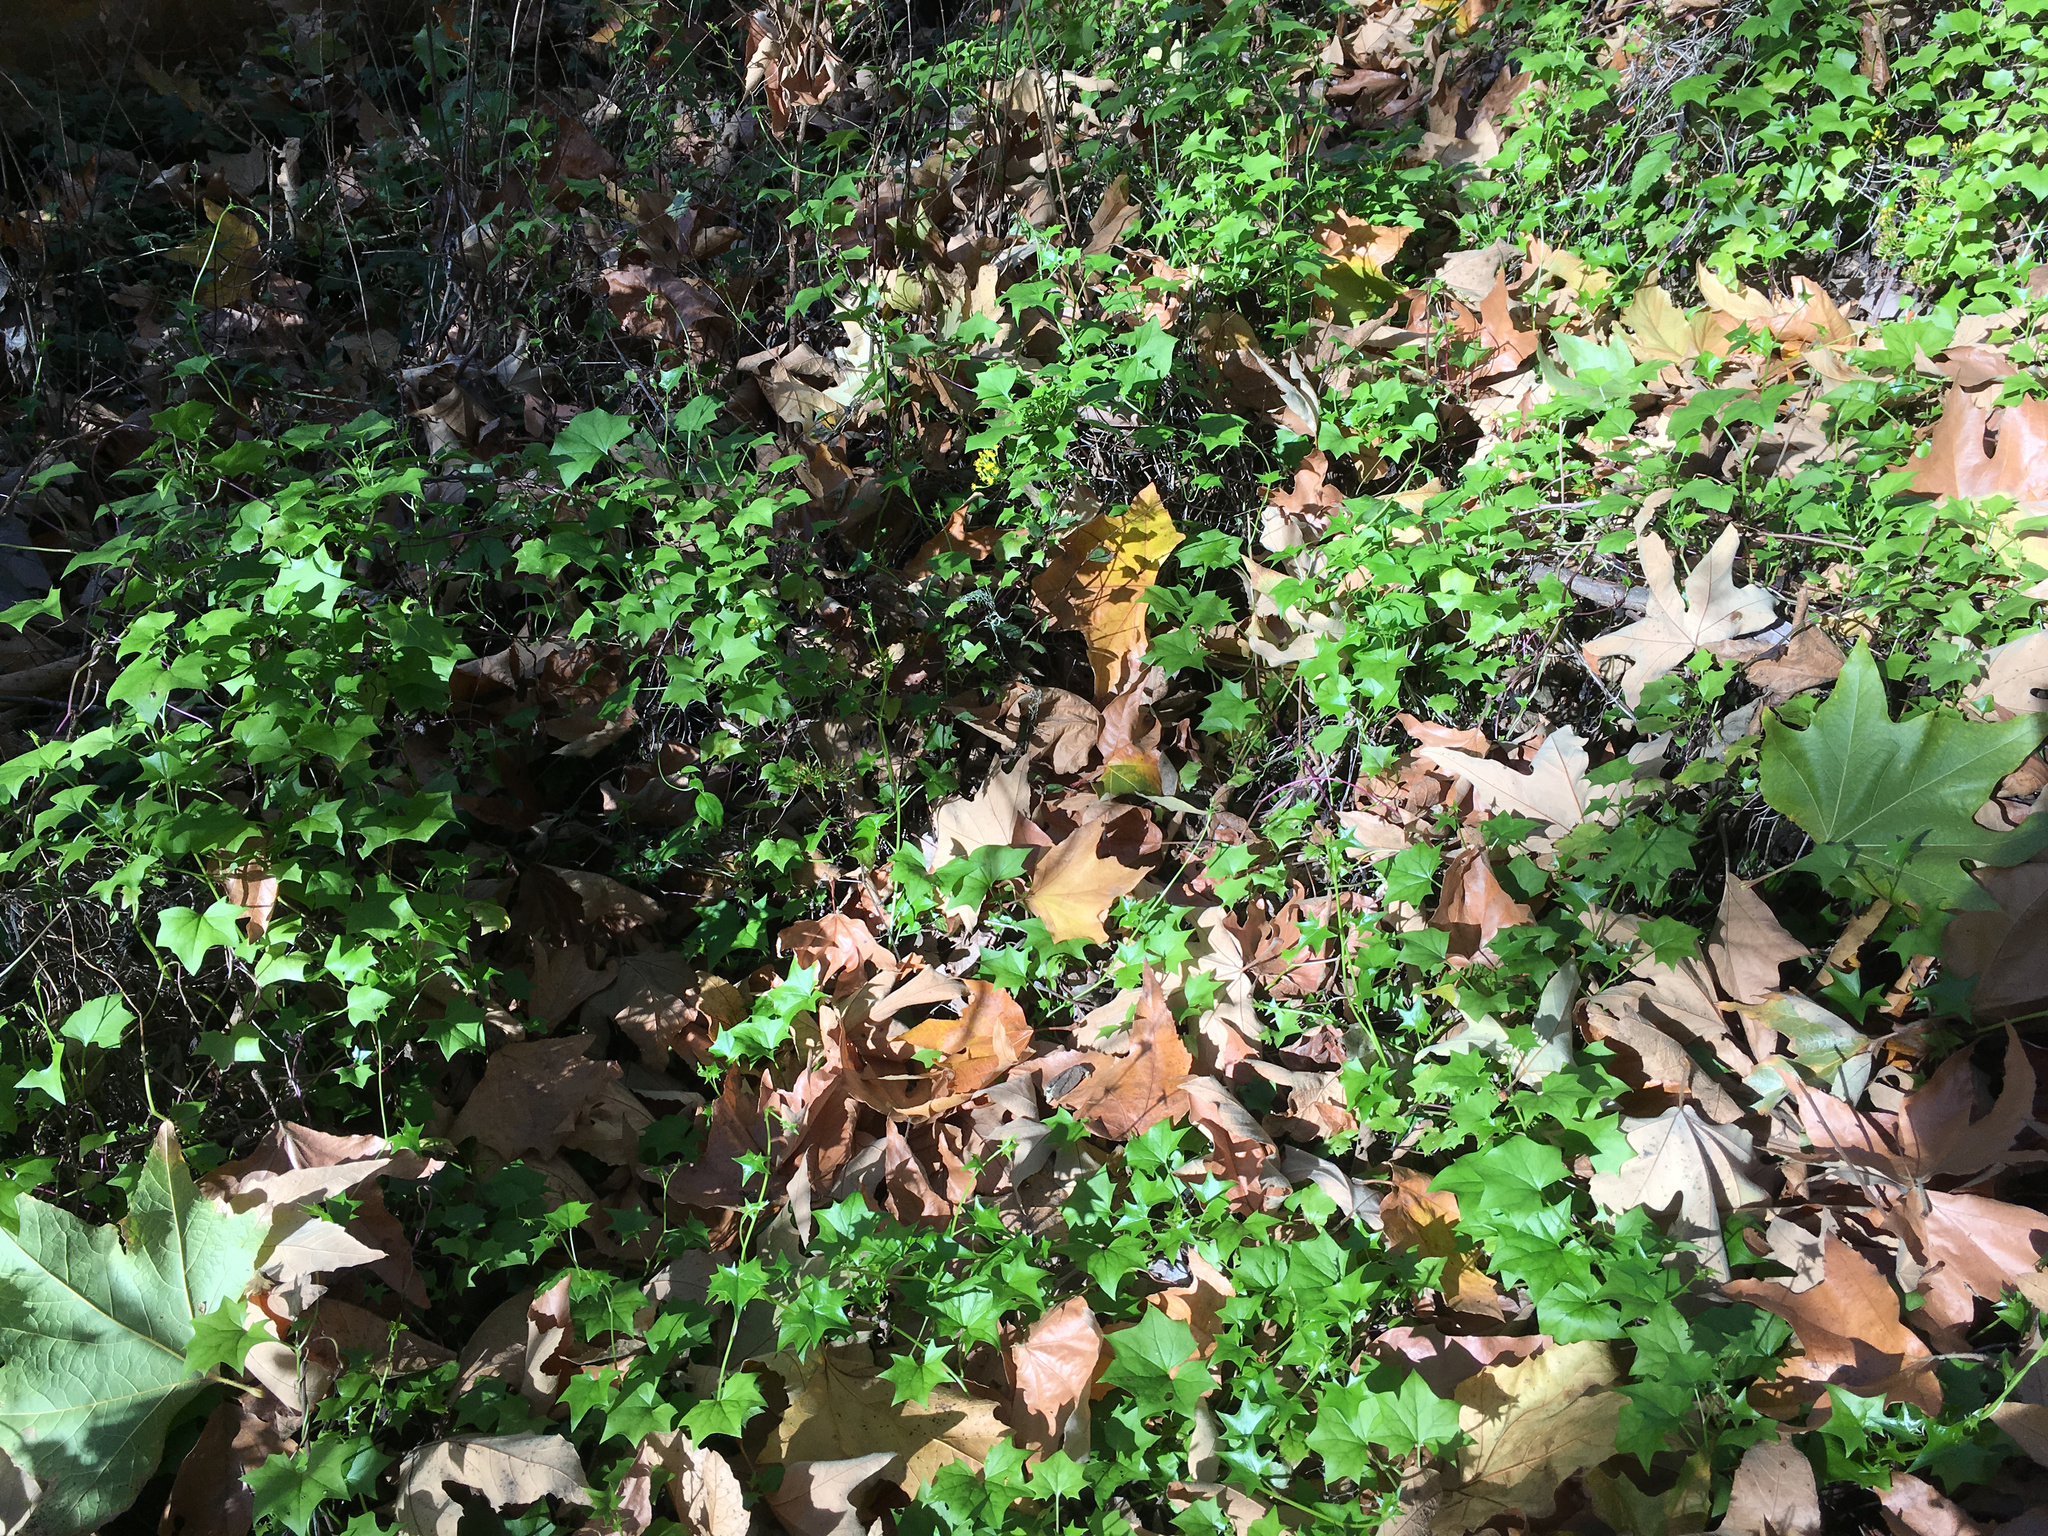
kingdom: Plantae
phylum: Tracheophyta
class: Magnoliopsida
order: Asterales
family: Asteraceae
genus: Delairea
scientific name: Delairea odorata
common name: Cape-ivy
